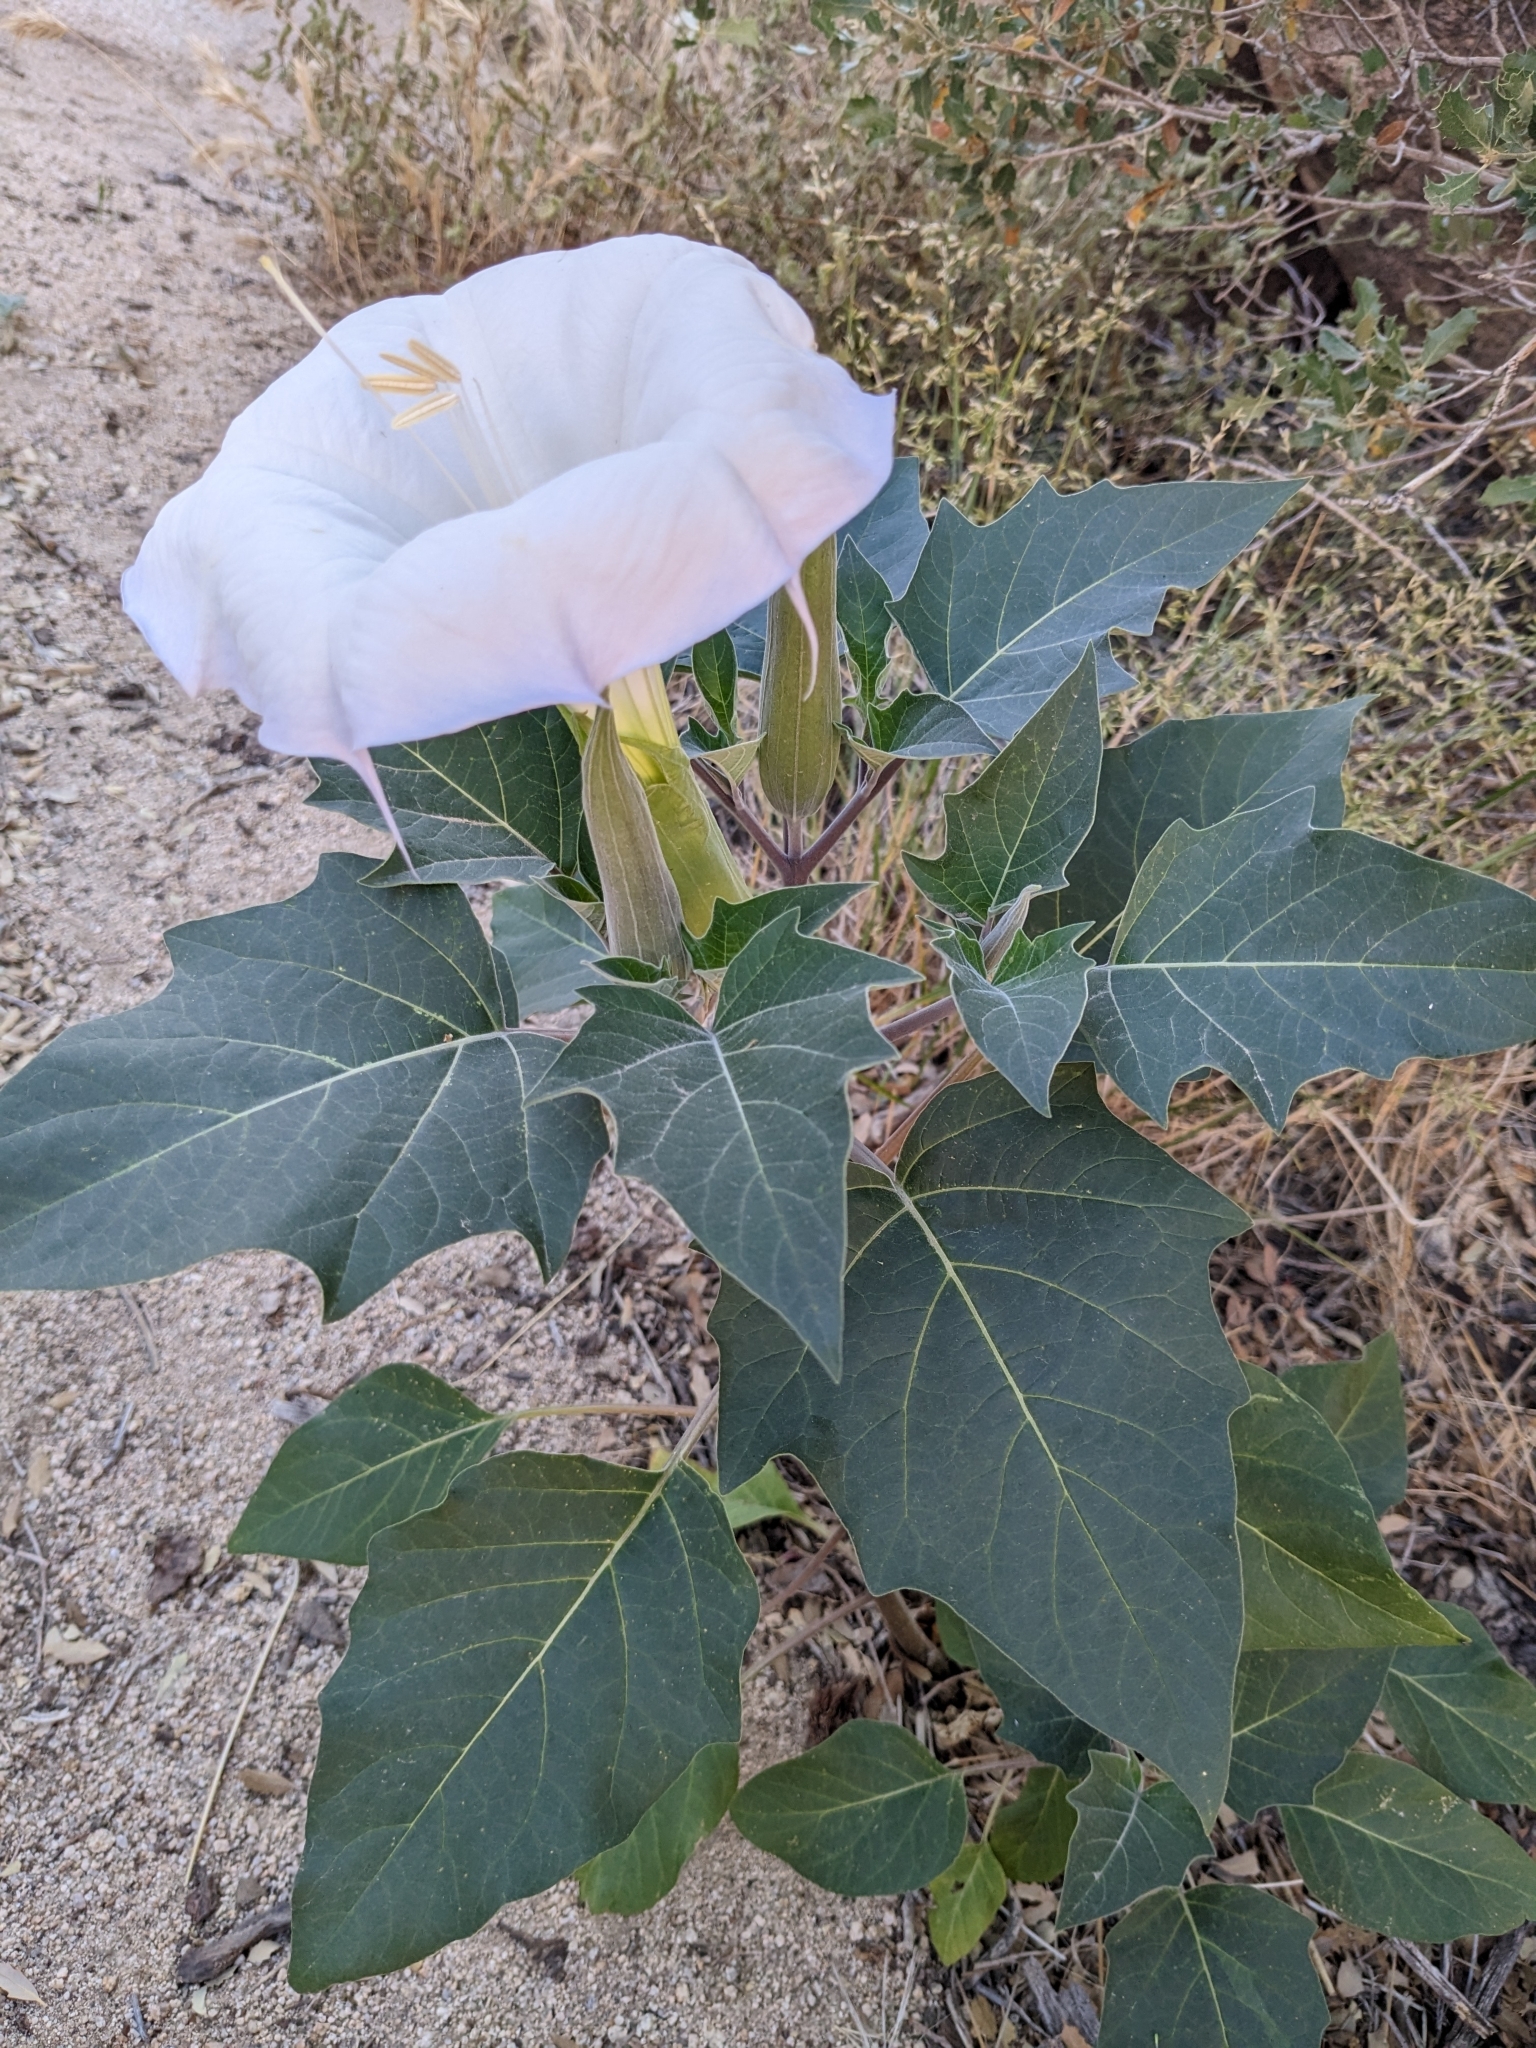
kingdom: Plantae
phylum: Tracheophyta
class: Magnoliopsida
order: Solanales
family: Solanaceae
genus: Datura
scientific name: Datura wrightii
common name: Sacred thorn-apple
